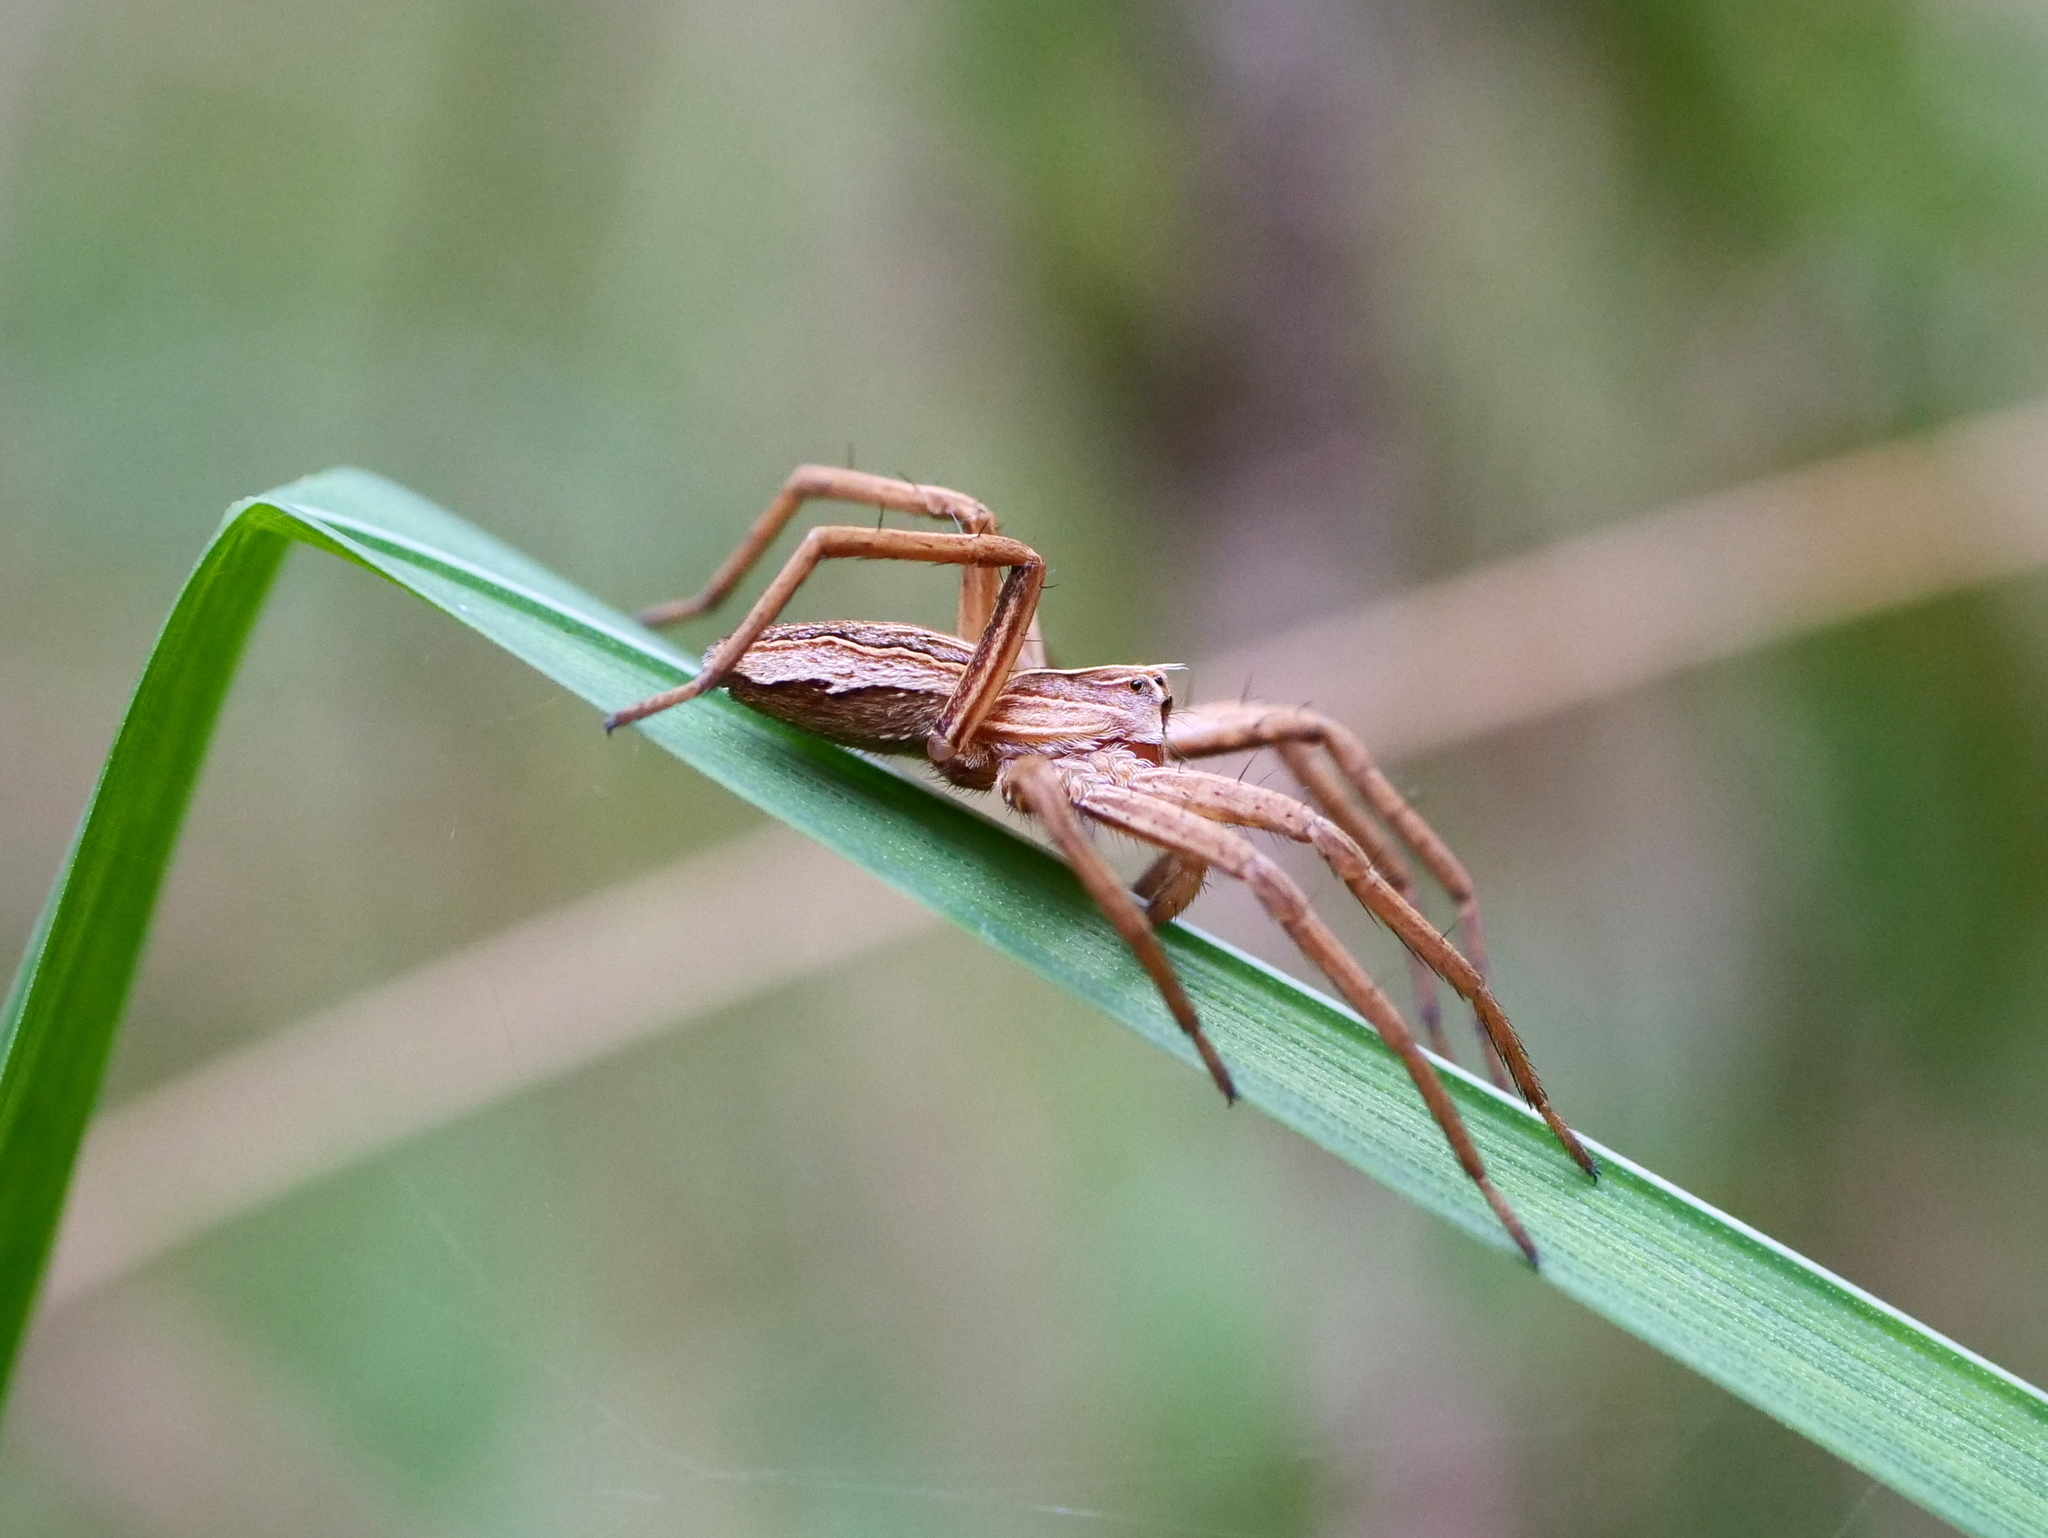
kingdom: Animalia
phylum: Arthropoda
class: Arachnida
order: Araneae
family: Pisauridae
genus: Pisaura
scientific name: Pisaura mirabilis
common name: Tent spider
